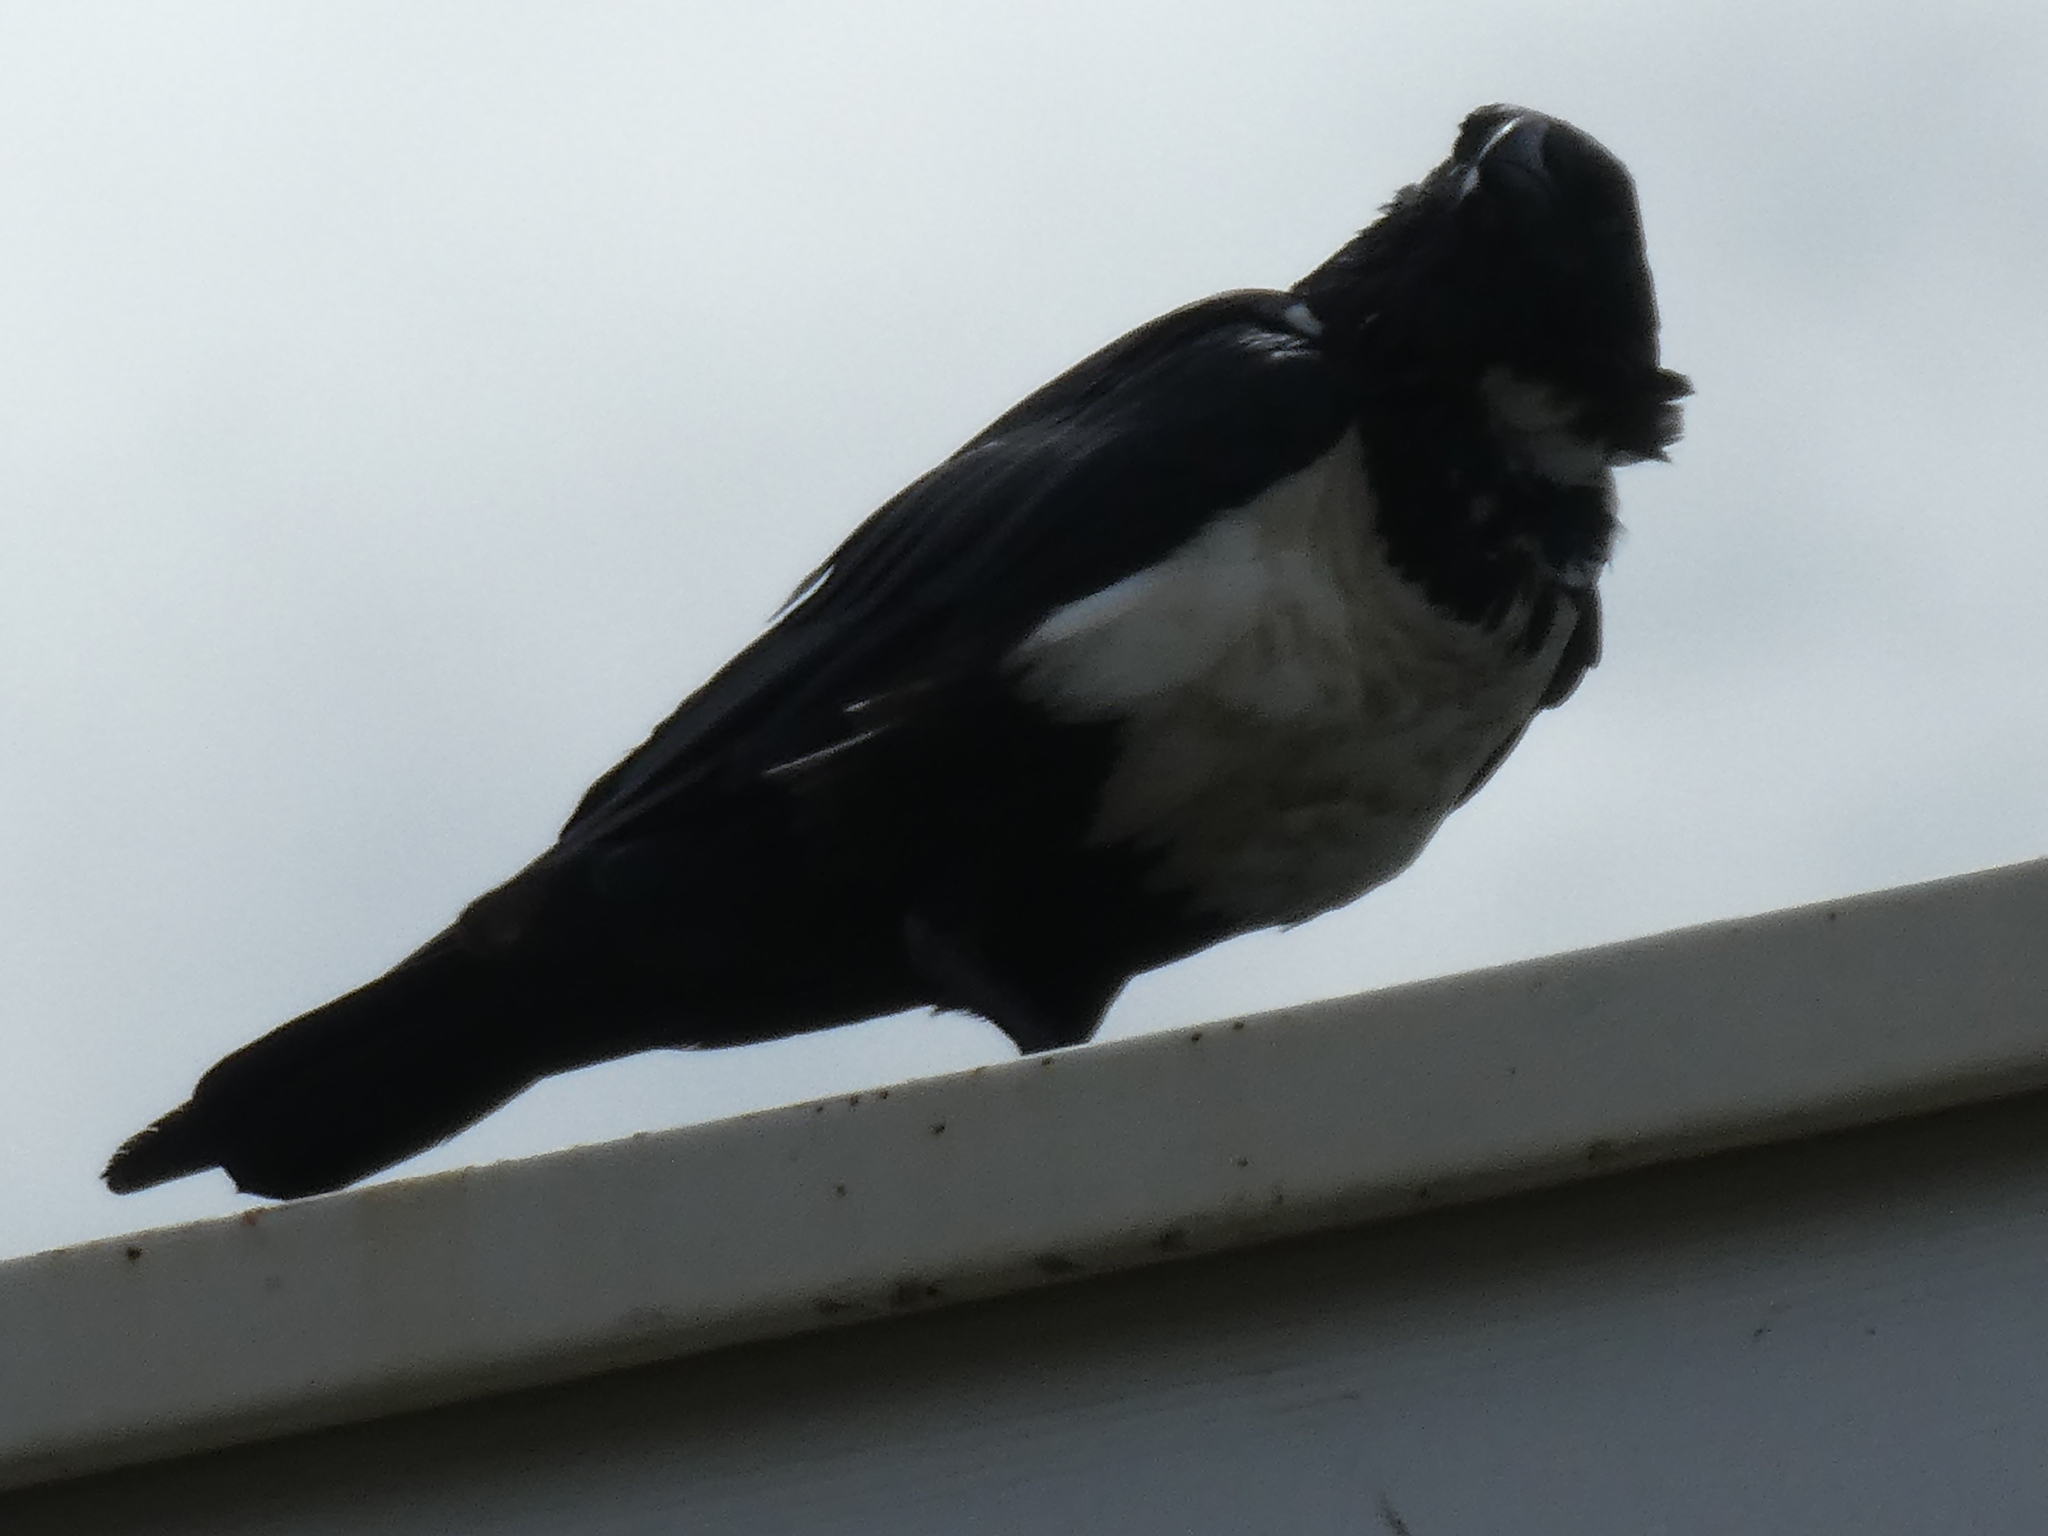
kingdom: Animalia
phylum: Chordata
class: Aves
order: Passeriformes
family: Corvidae
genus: Corvus
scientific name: Corvus albus
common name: Pied crow
